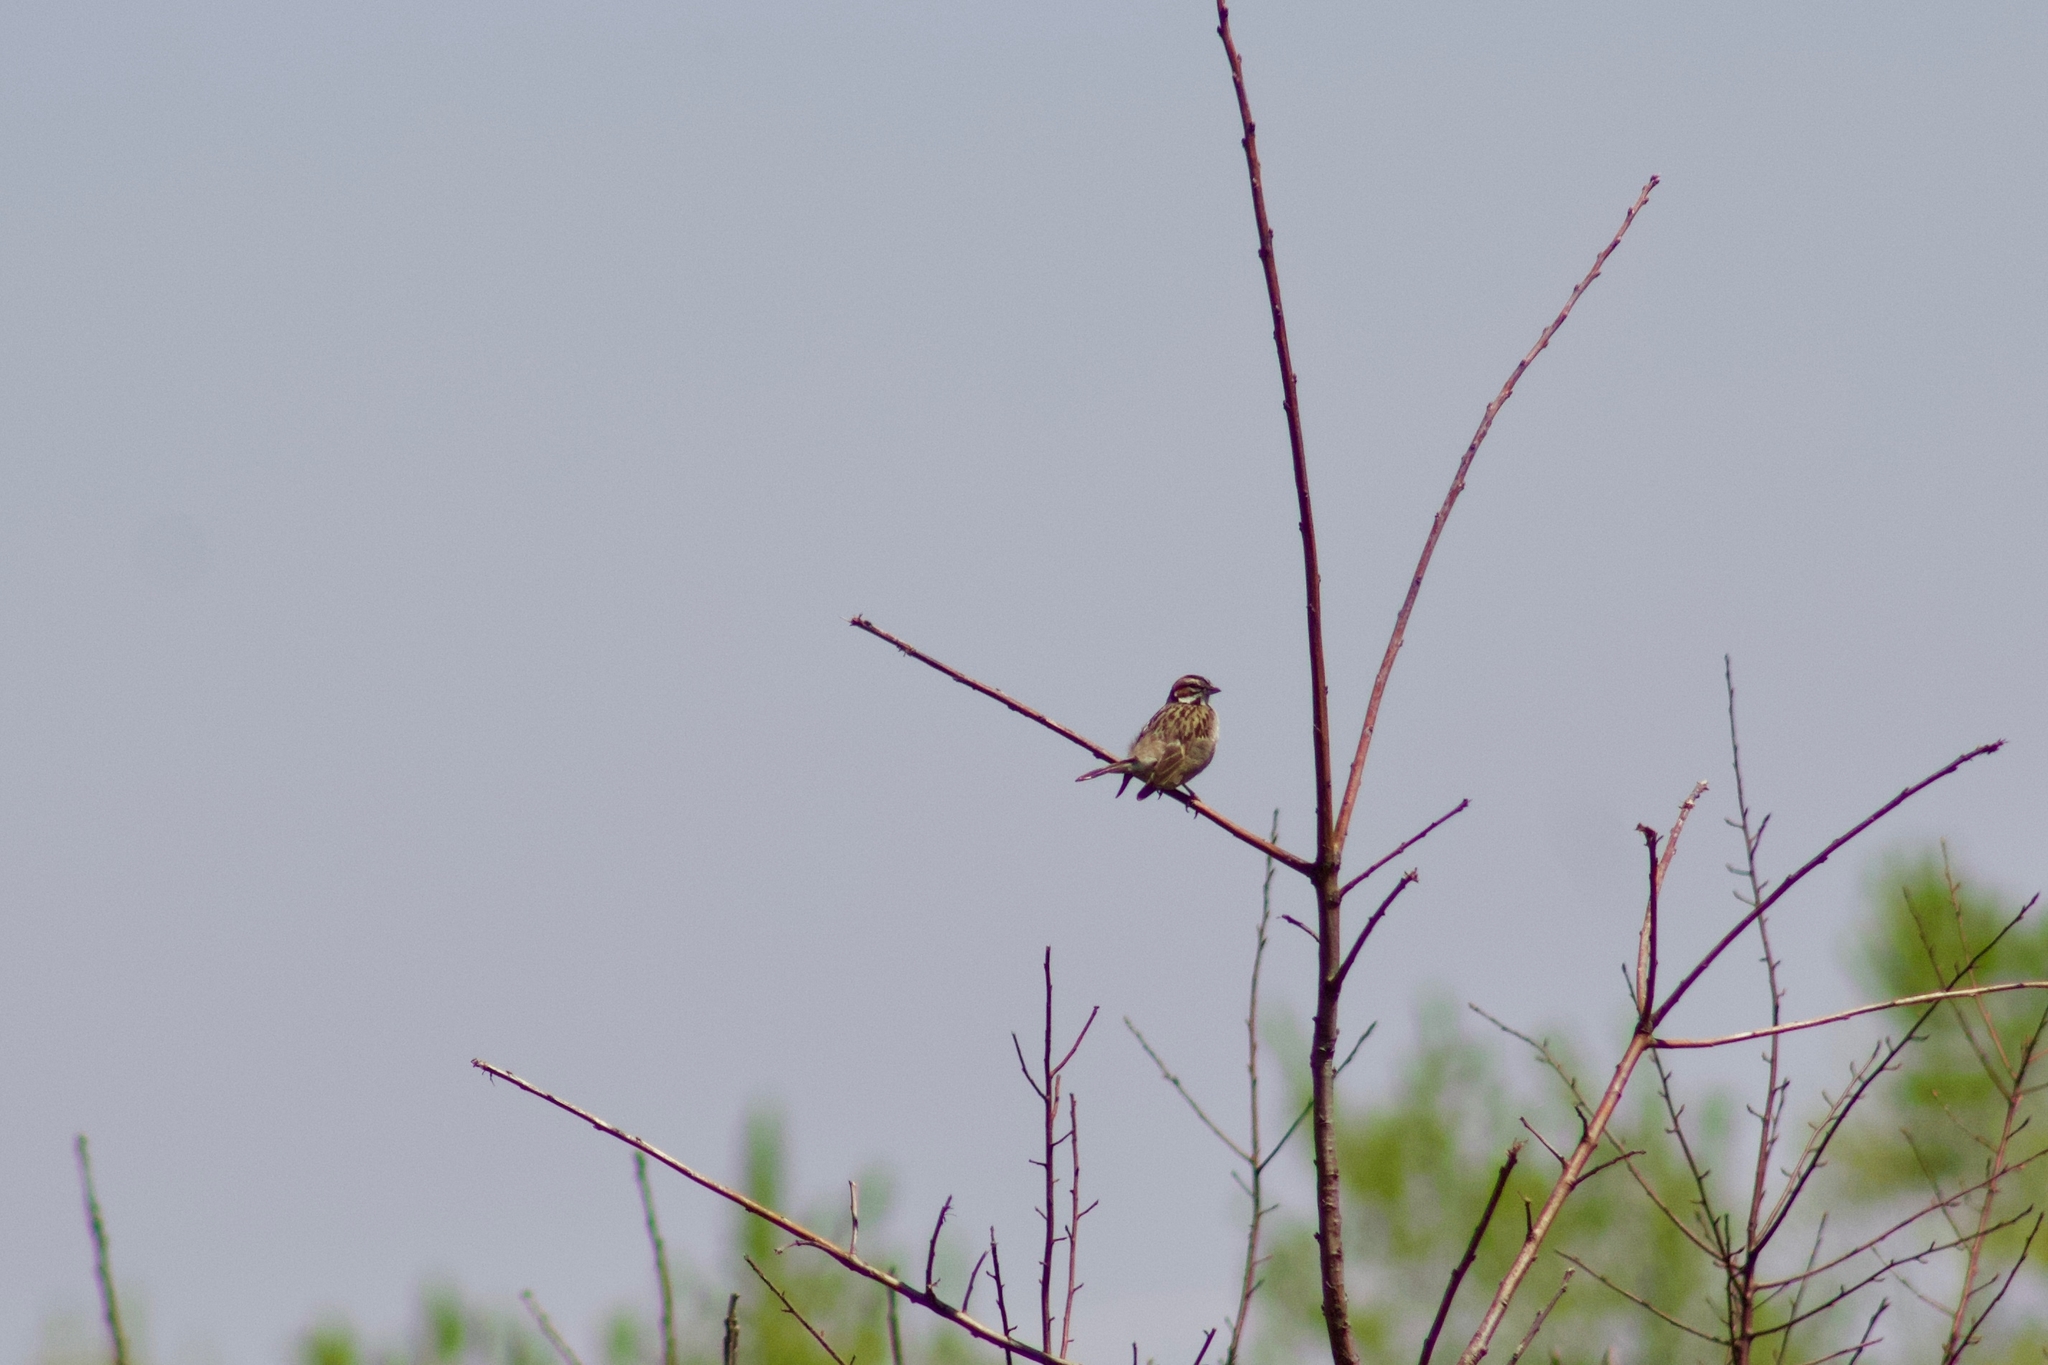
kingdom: Animalia
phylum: Chordata
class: Aves
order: Passeriformes
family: Passerellidae
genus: Chondestes
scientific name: Chondestes grammacus
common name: Lark sparrow
